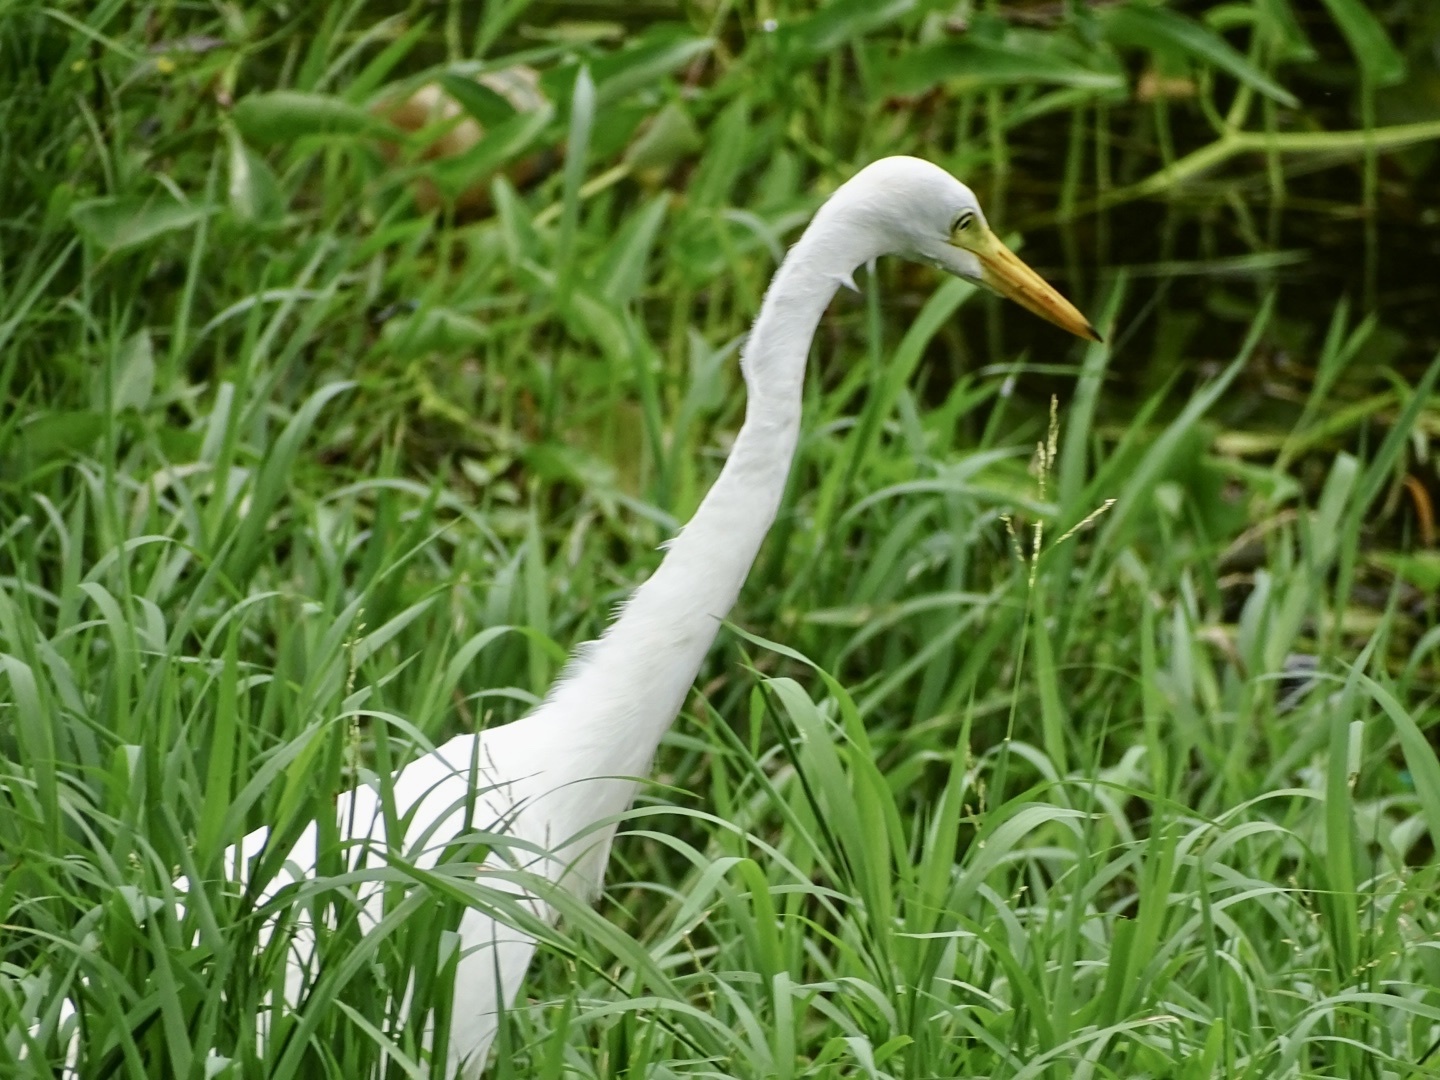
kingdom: Animalia
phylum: Chordata
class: Aves
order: Pelecaniformes
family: Ardeidae
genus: Egretta
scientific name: Egretta intermedia
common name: Intermediate egret
